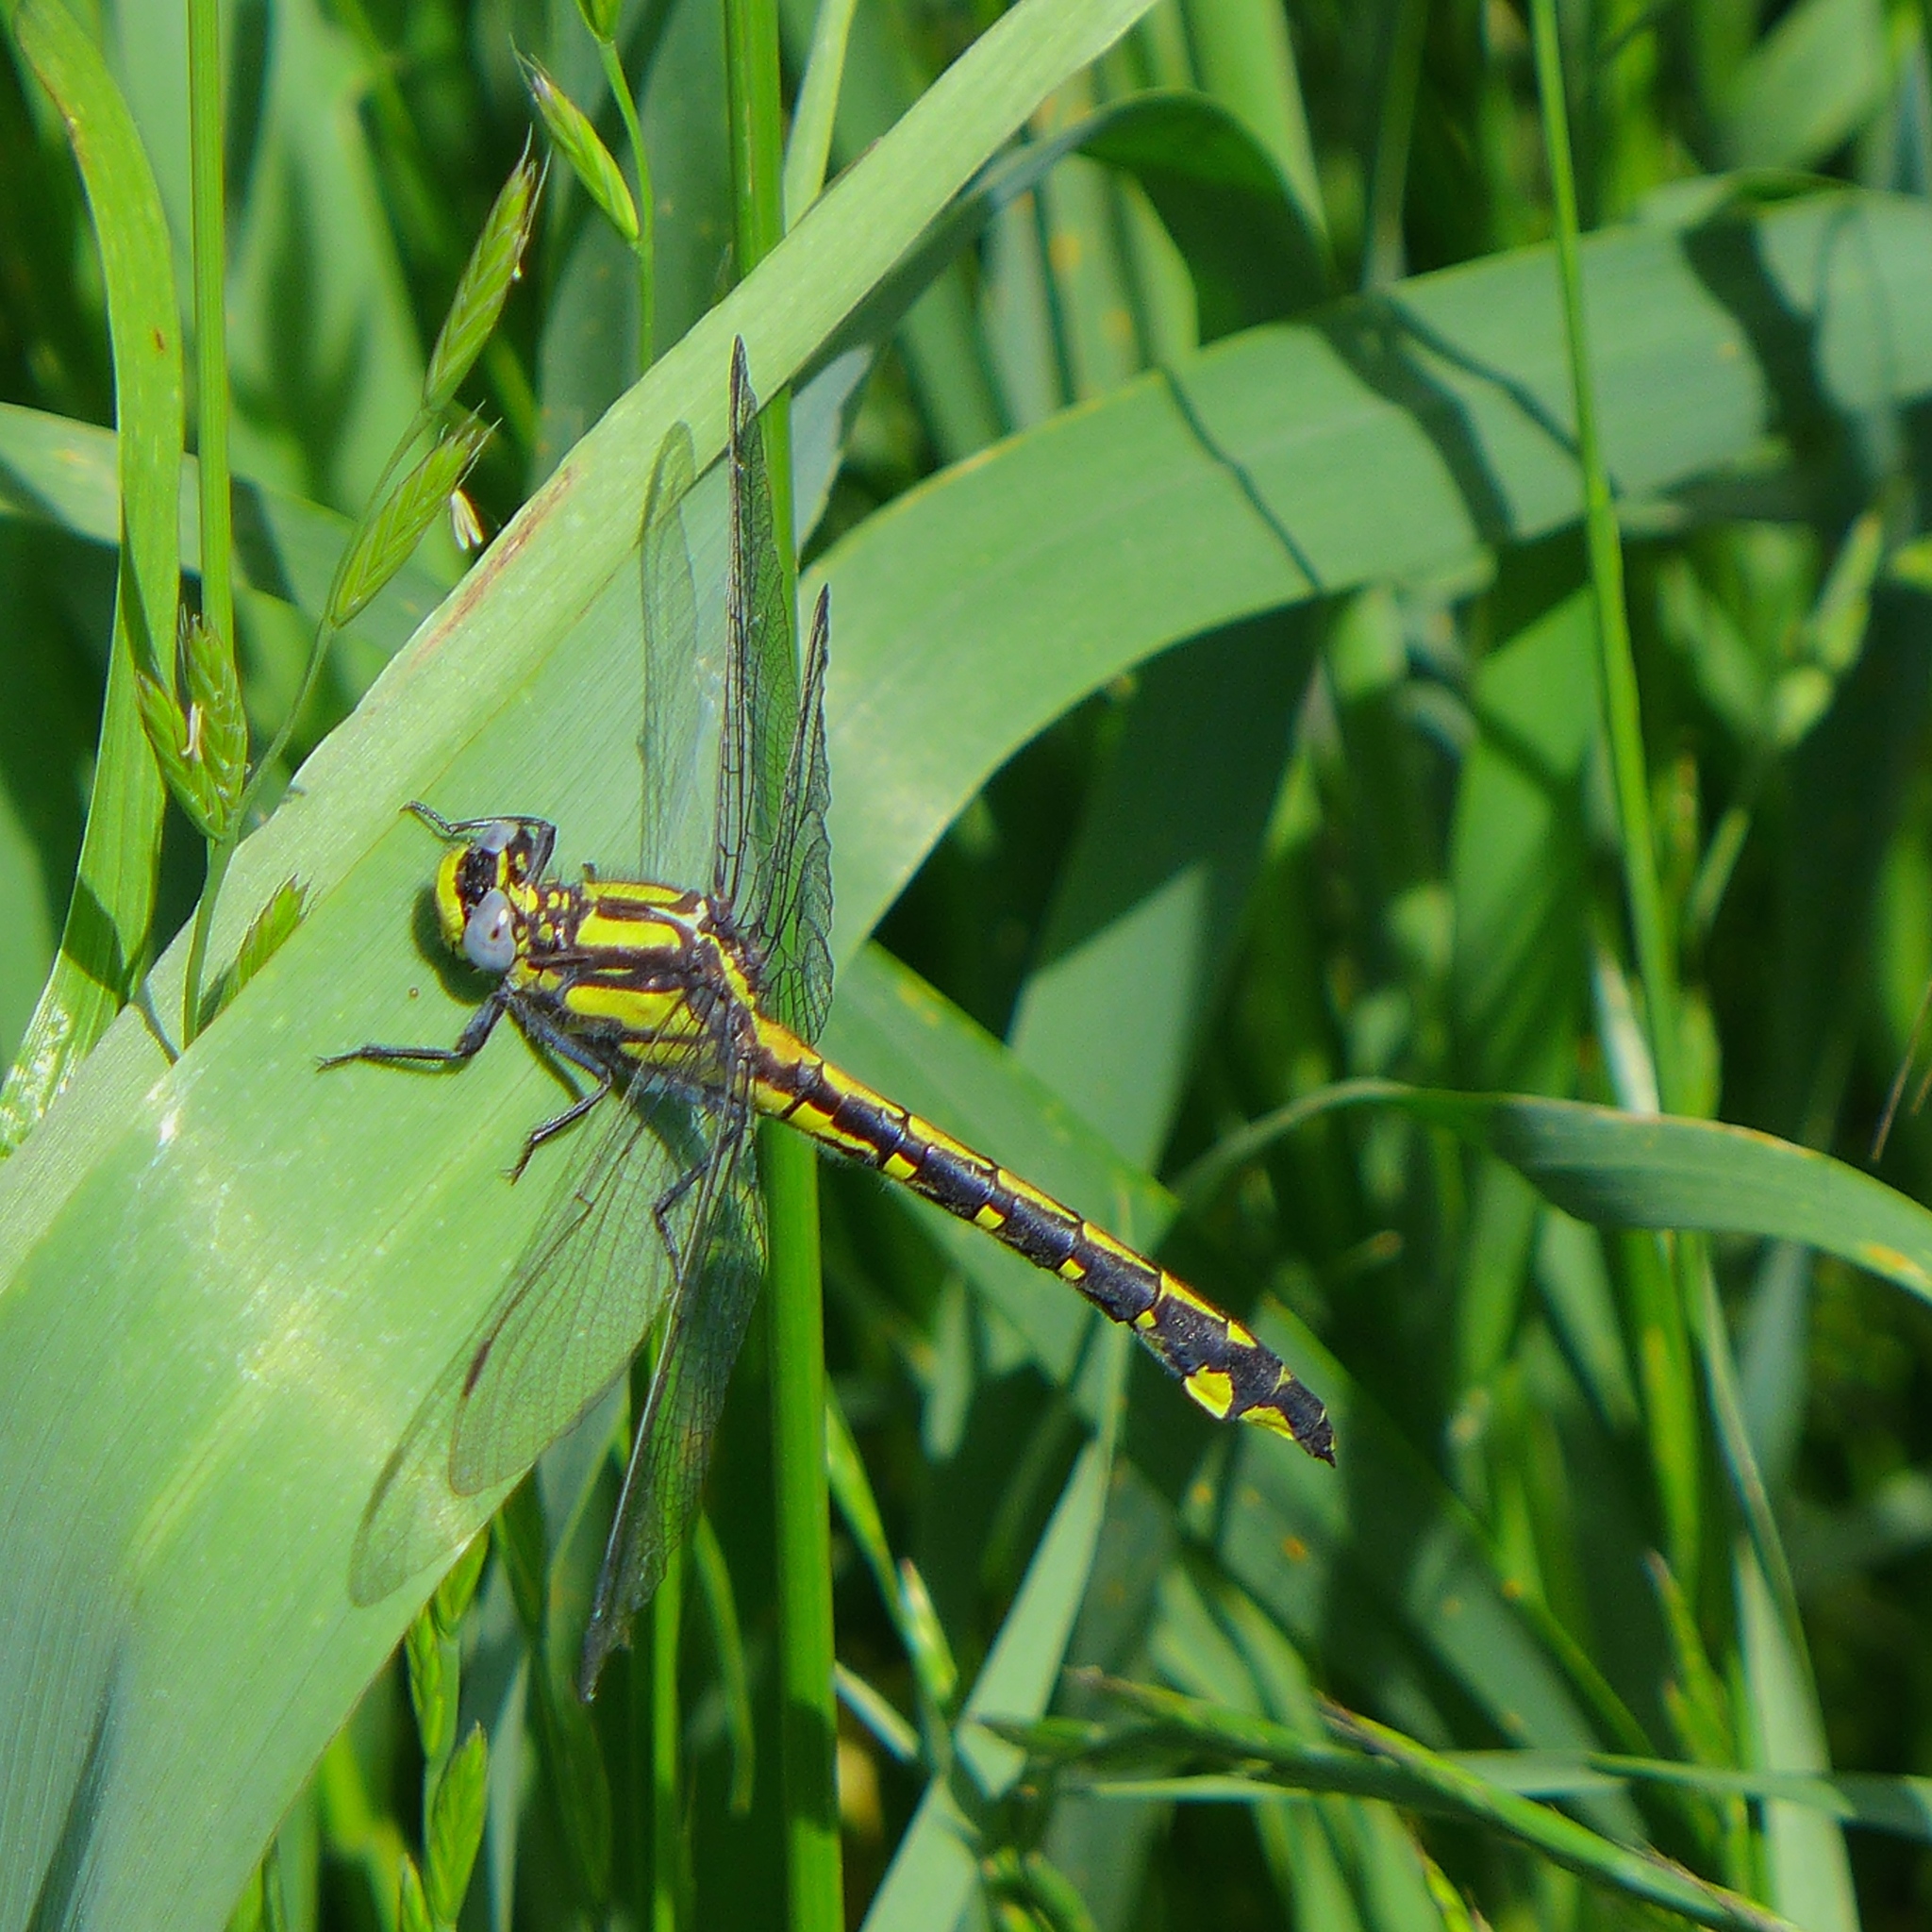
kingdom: Animalia
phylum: Arthropoda
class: Insecta
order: Odonata
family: Gomphidae
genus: Phanogomphus
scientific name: Phanogomphus kurilis
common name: Pacific clubtail
